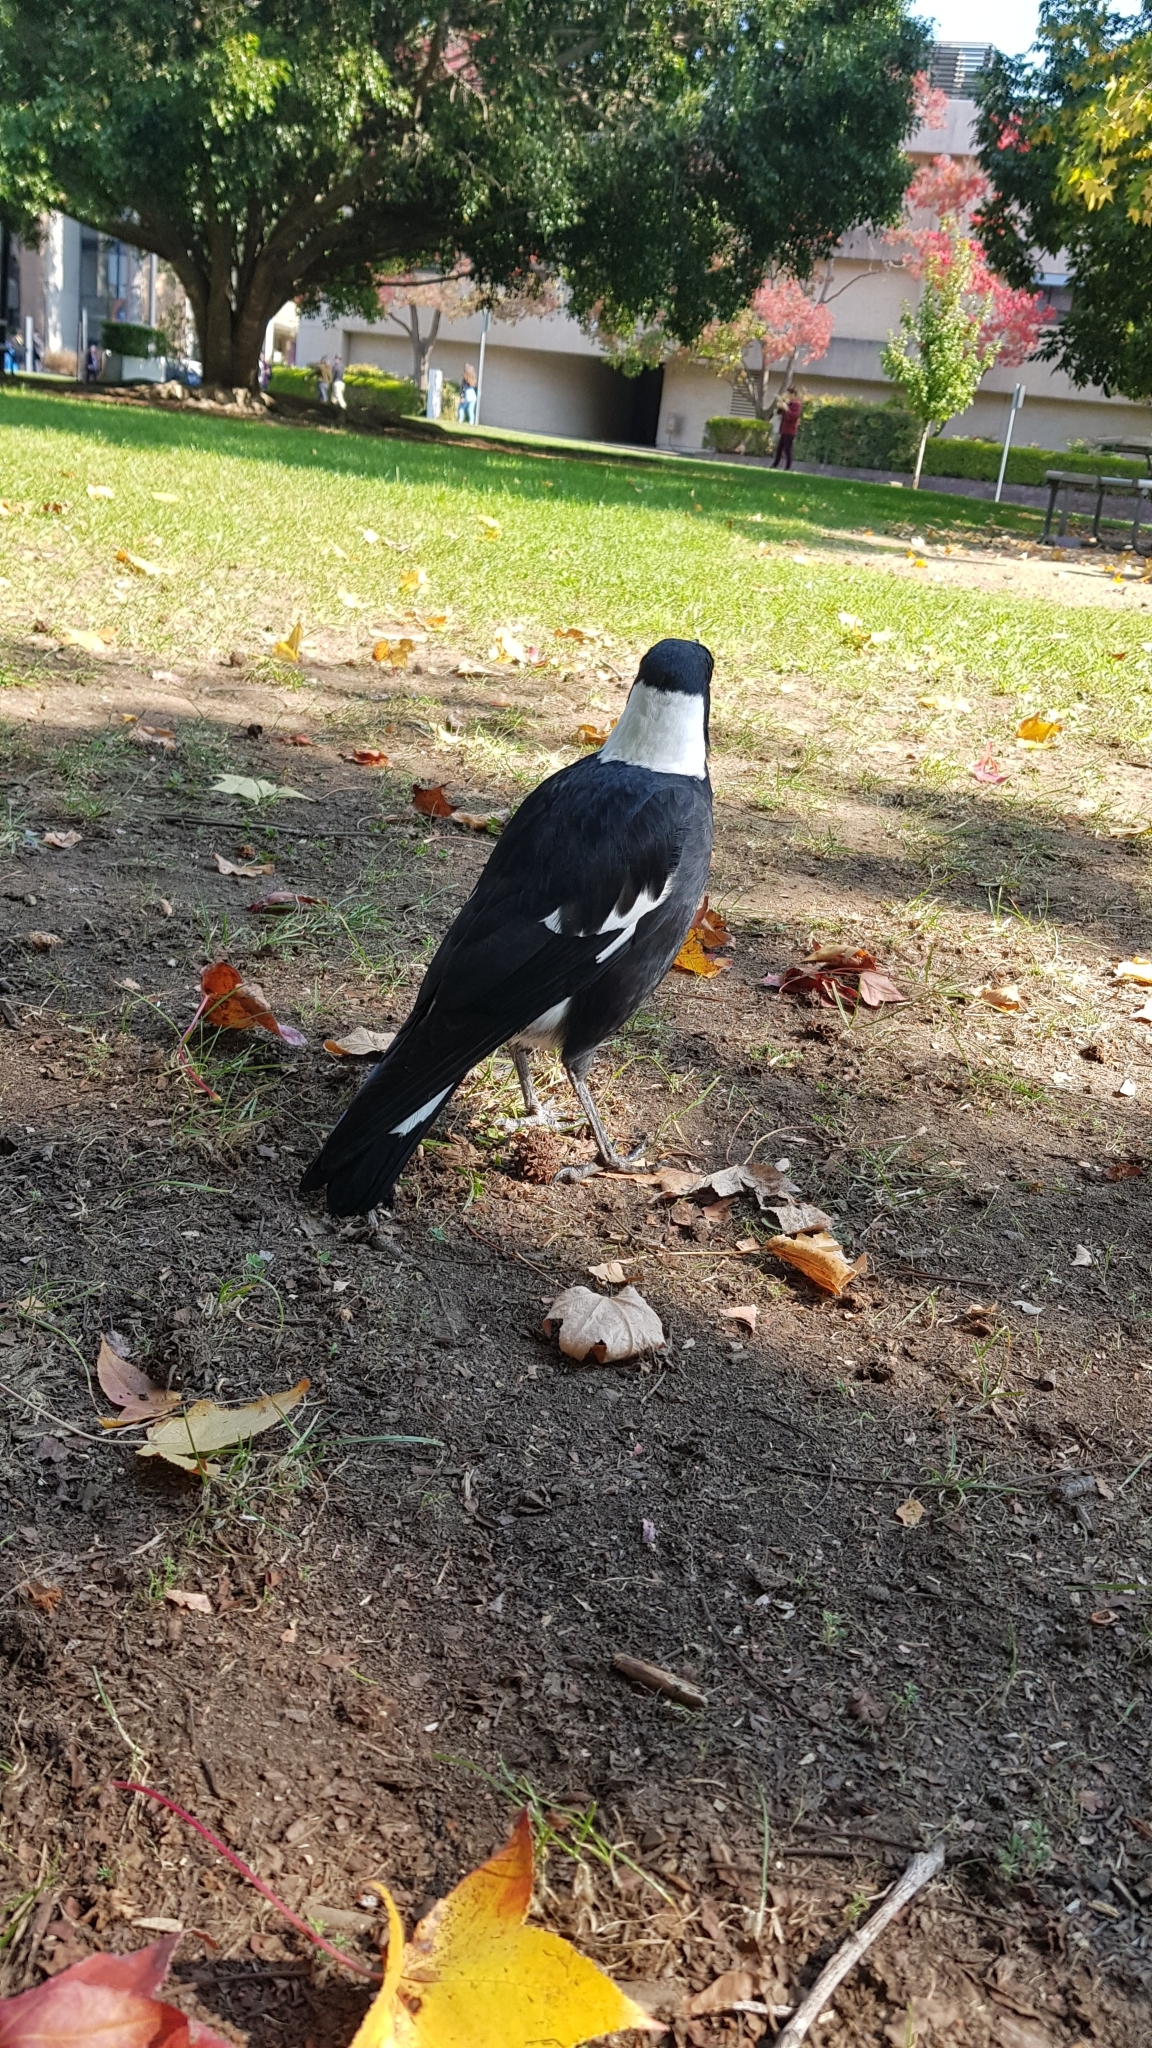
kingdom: Animalia
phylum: Chordata
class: Aves
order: Passeriformes
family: Cracticidae
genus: Gymnorhina
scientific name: Gymnorhina tibicen
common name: Australian magpie
